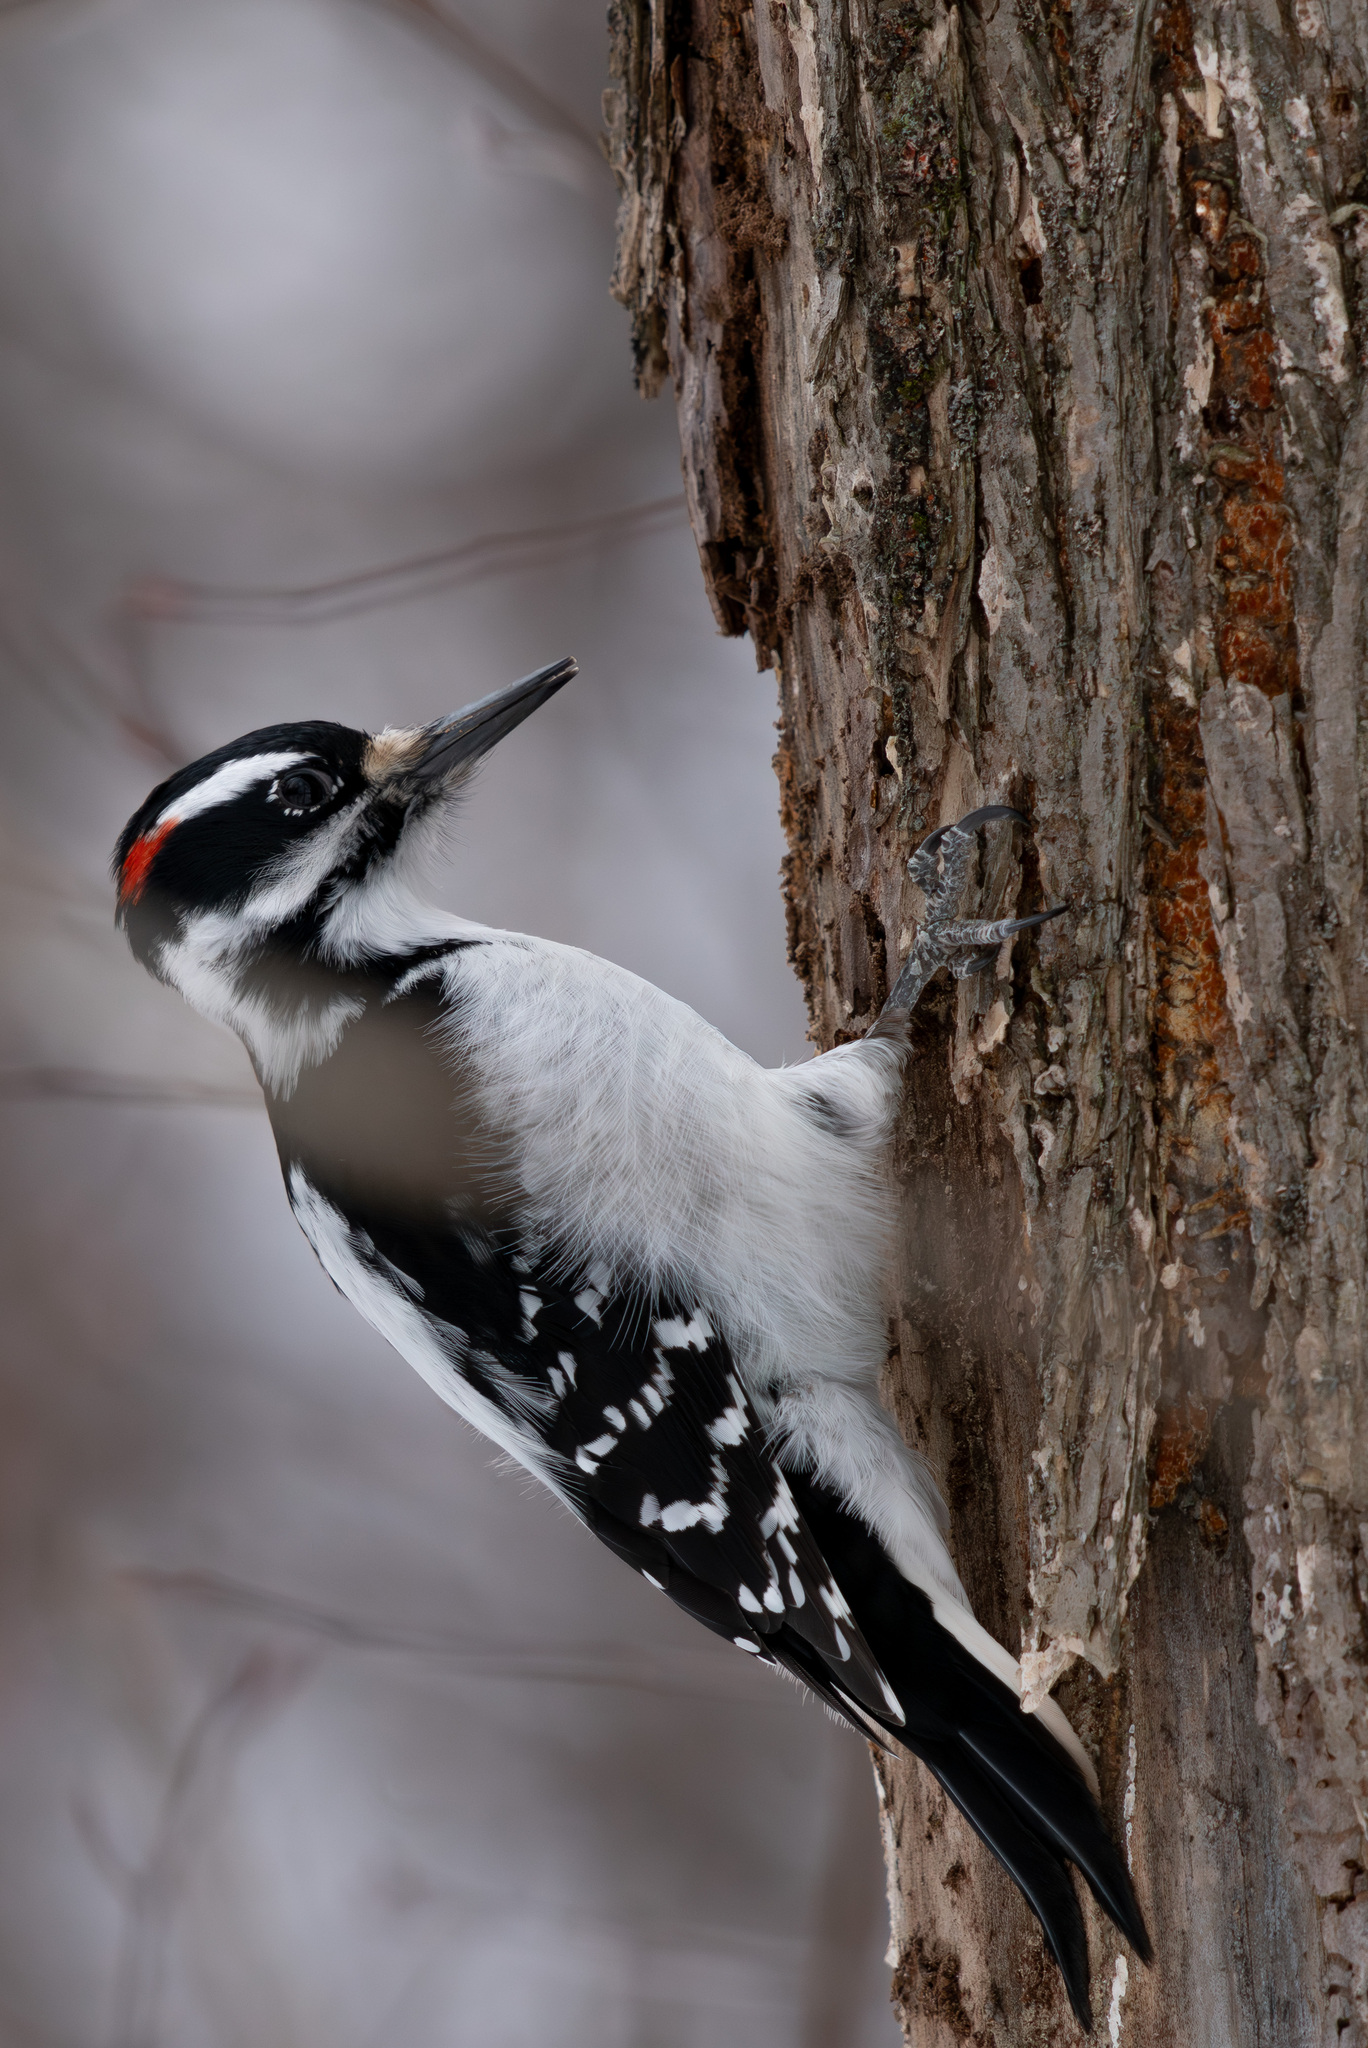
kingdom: Animalia
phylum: Chordata
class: Aves
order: Piciformes
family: Picidae
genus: Leuconotopicus
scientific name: Leuconotopicus villosus
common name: Hairy woodpecker
